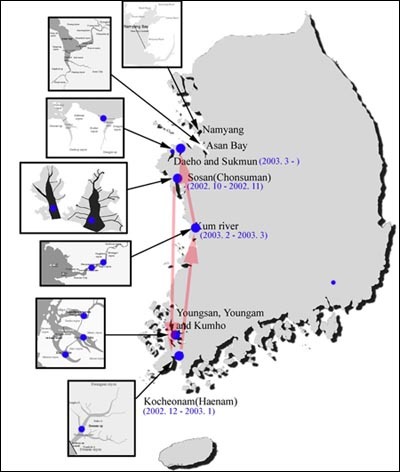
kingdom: Animalia
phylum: Chordata
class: Aves
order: Anseriformes
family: Anatidae
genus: Sibirionetta
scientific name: Sibirionetta formosa
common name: Baikal teal
